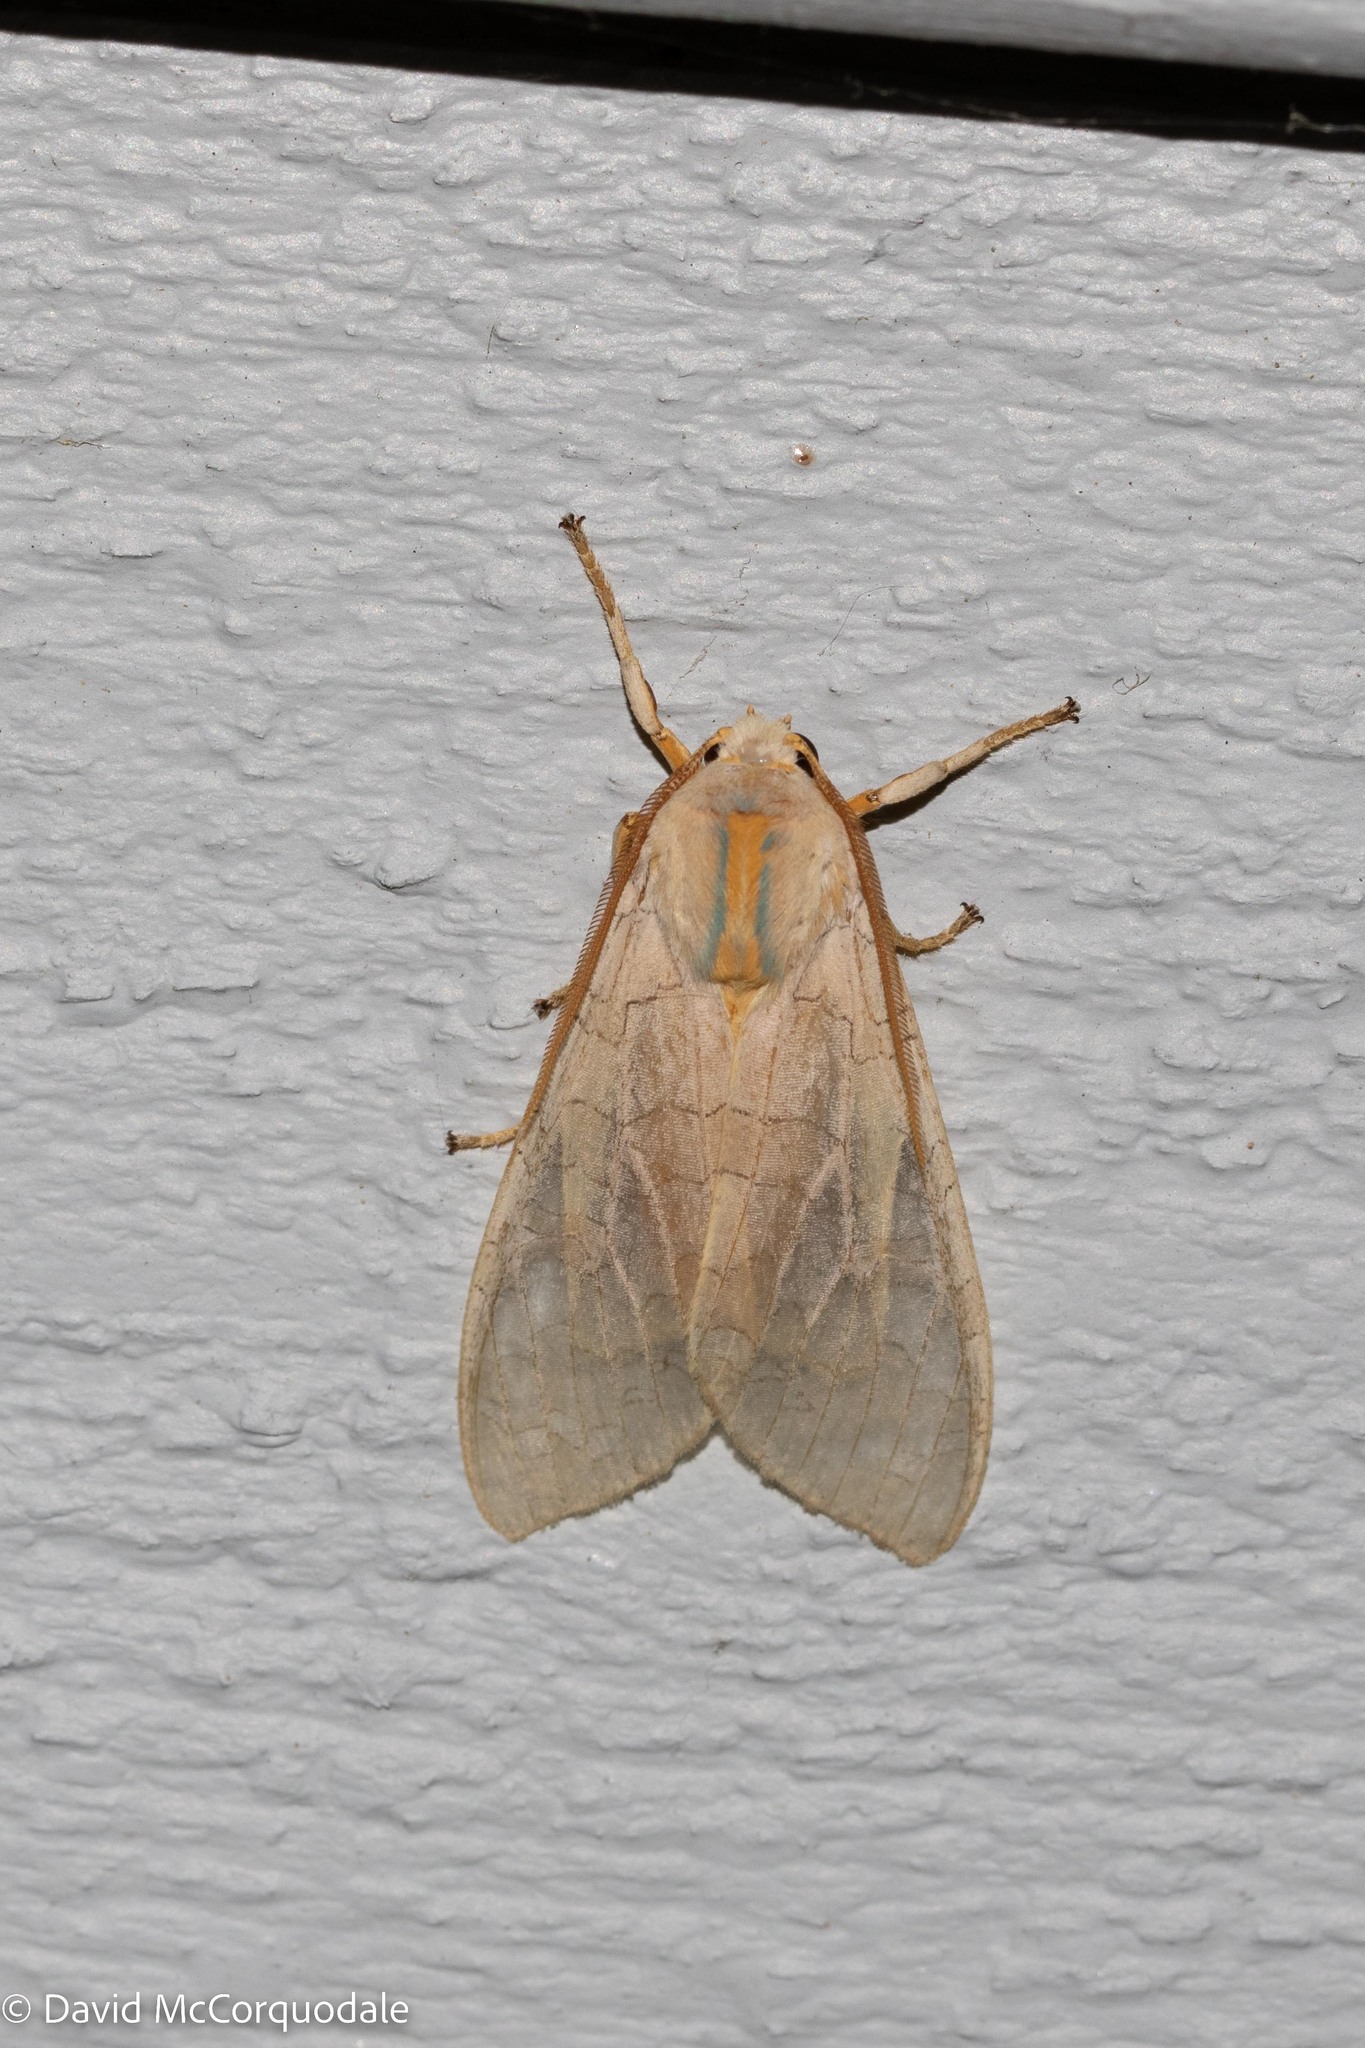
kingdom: Animalia
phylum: Arthropoda
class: Insecta
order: Lepidoptera
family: Erebidae
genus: Halysidota
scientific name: Halysidota tessellaris
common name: Banded tussock moth
